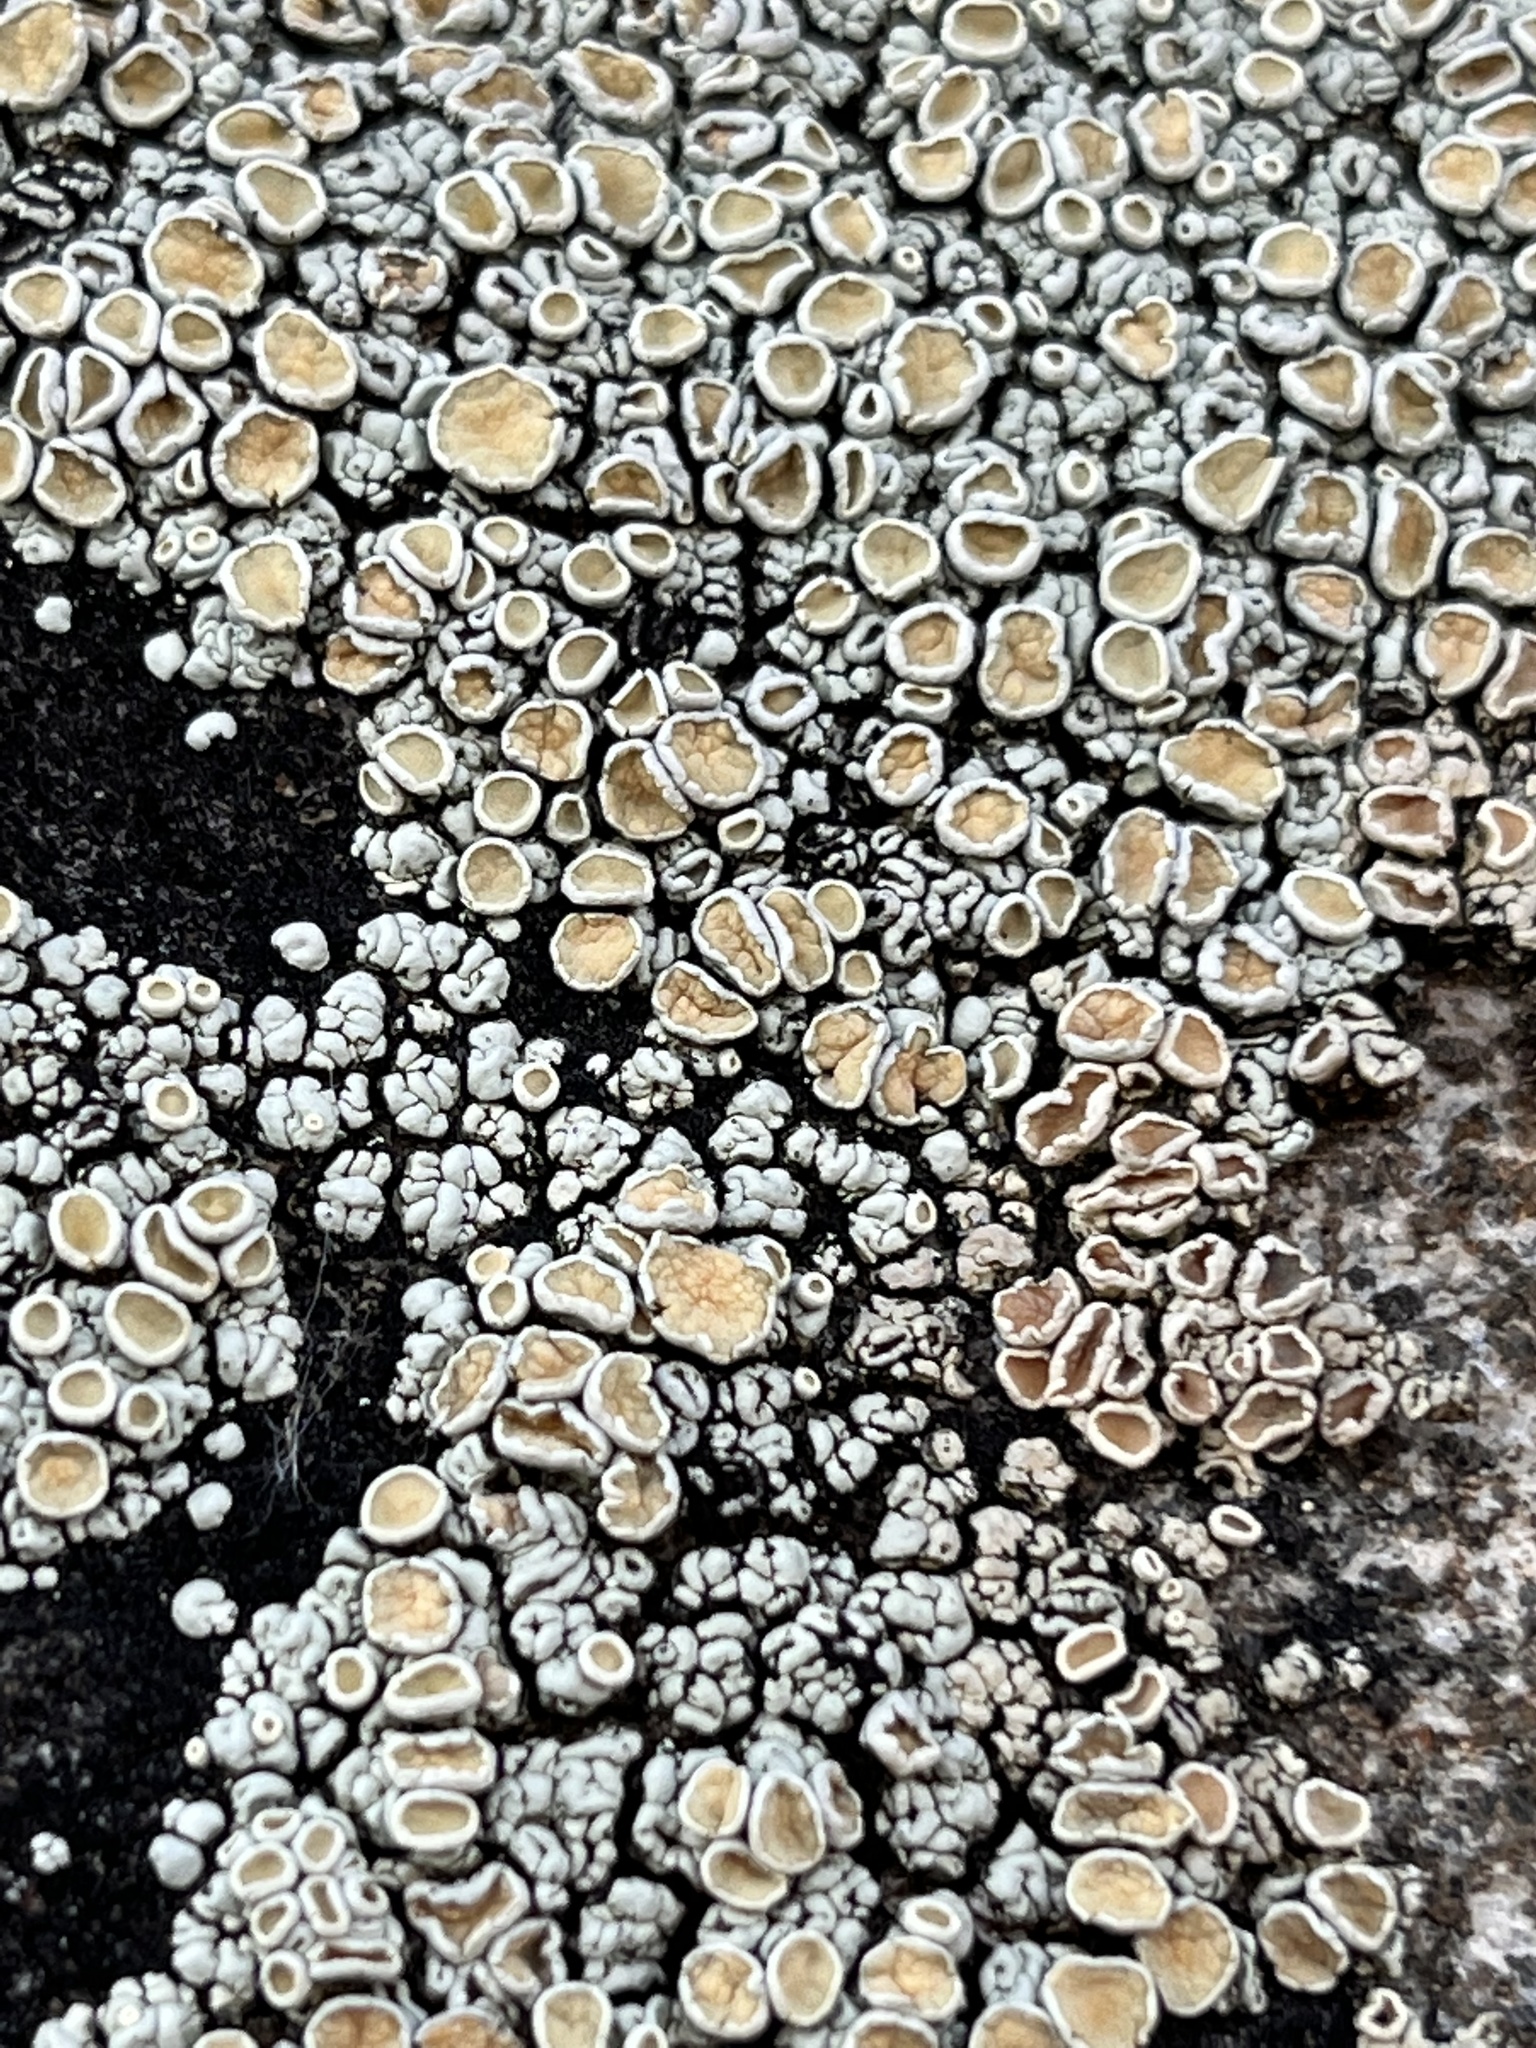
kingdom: Fungi
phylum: Ascomycota
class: Lecanoromycetes
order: Lecanorales
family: Lecanoraceae
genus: Sedelnikovaea
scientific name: Sedelnikovaea subdiscrepans
